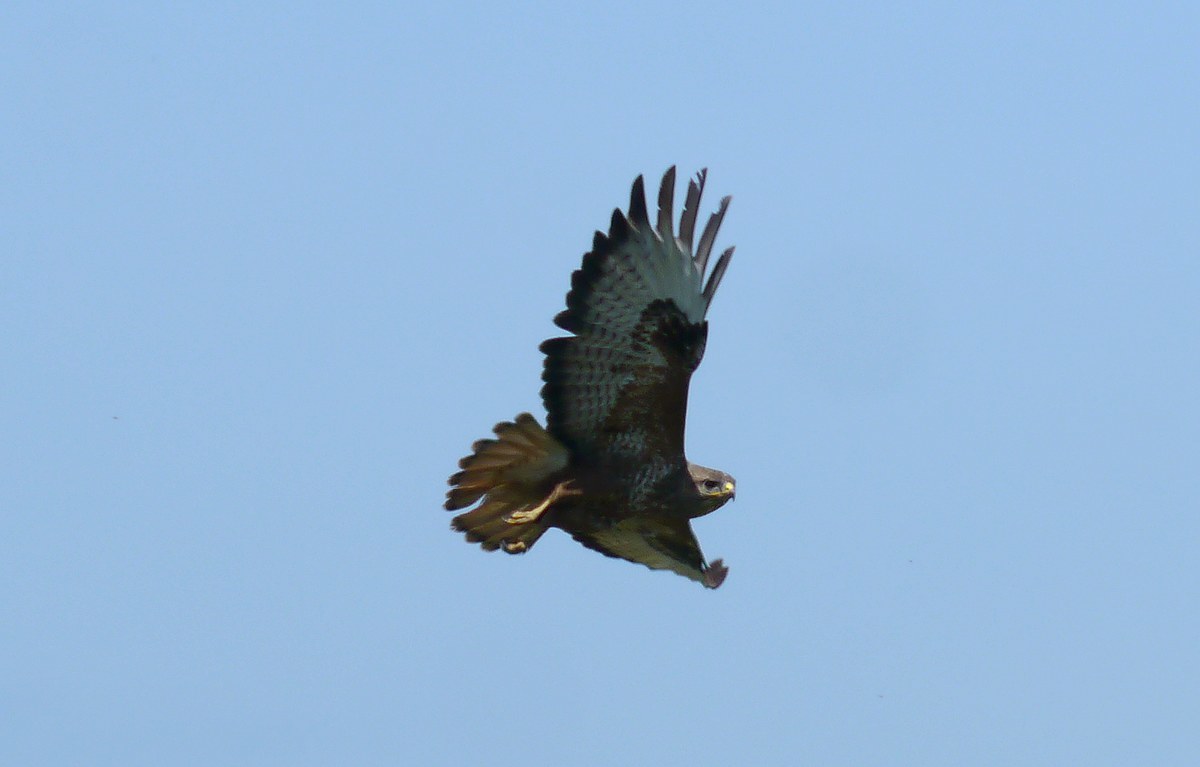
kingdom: Animalia
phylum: Chordata
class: Aves
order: Accipitriformes
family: Accipitridae
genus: Buteo
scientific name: Buteo buteo
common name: Common buzzard
